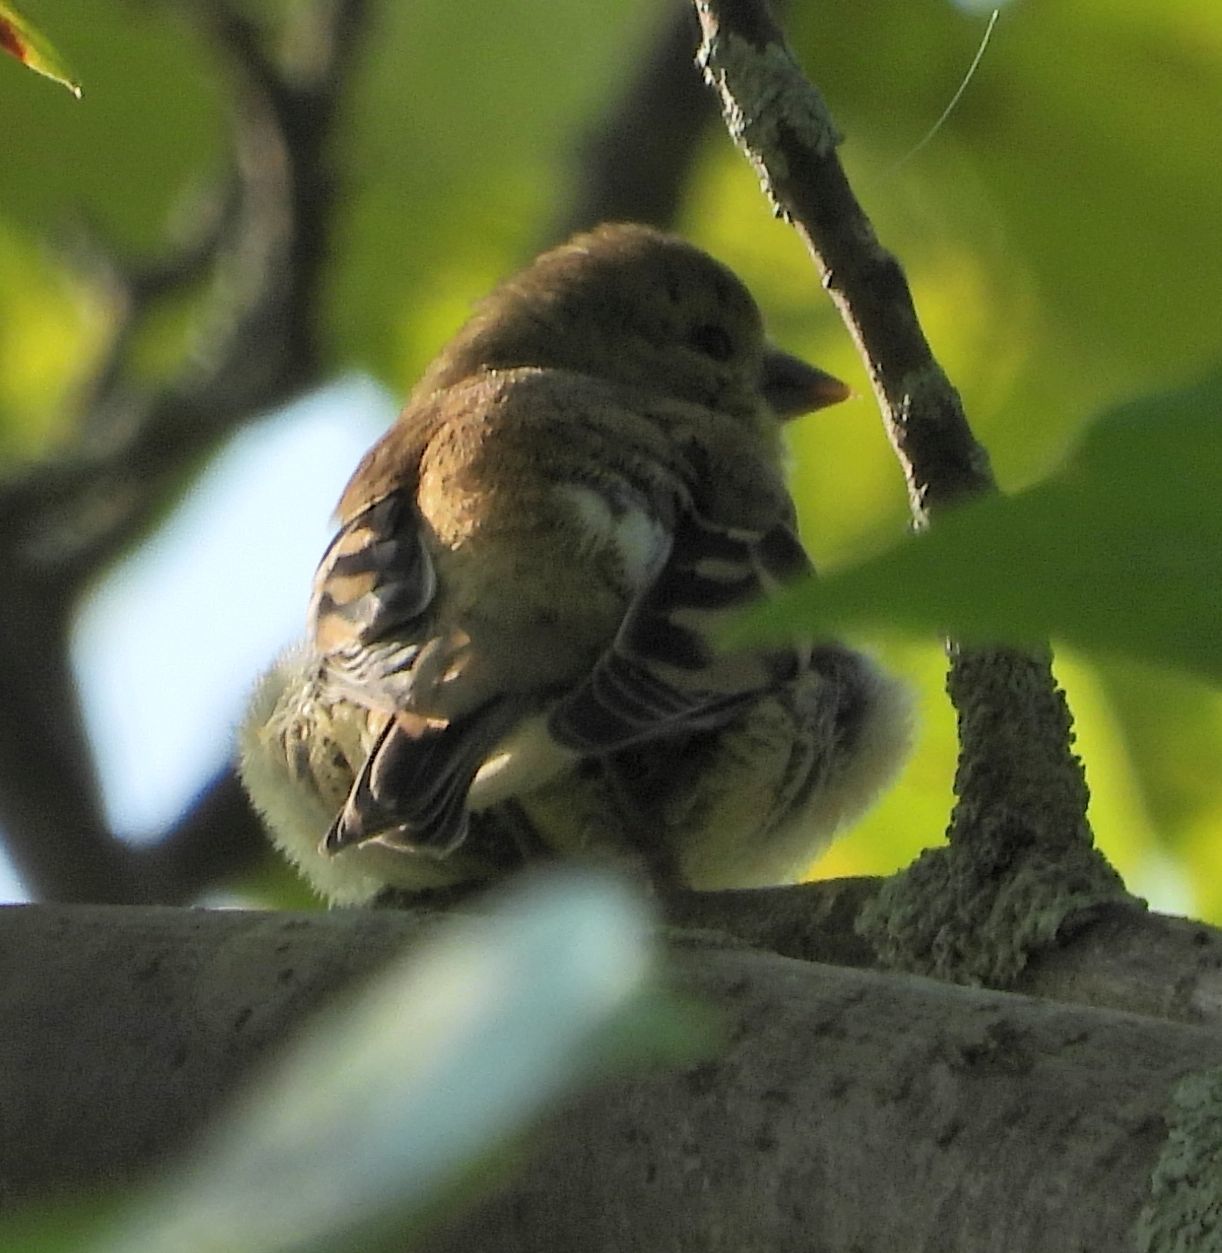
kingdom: Animalia
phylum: Chordata
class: Aves
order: Passeriformes
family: Fringillidae
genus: Spinus
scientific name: Spinus tristis
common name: American goldfinch
